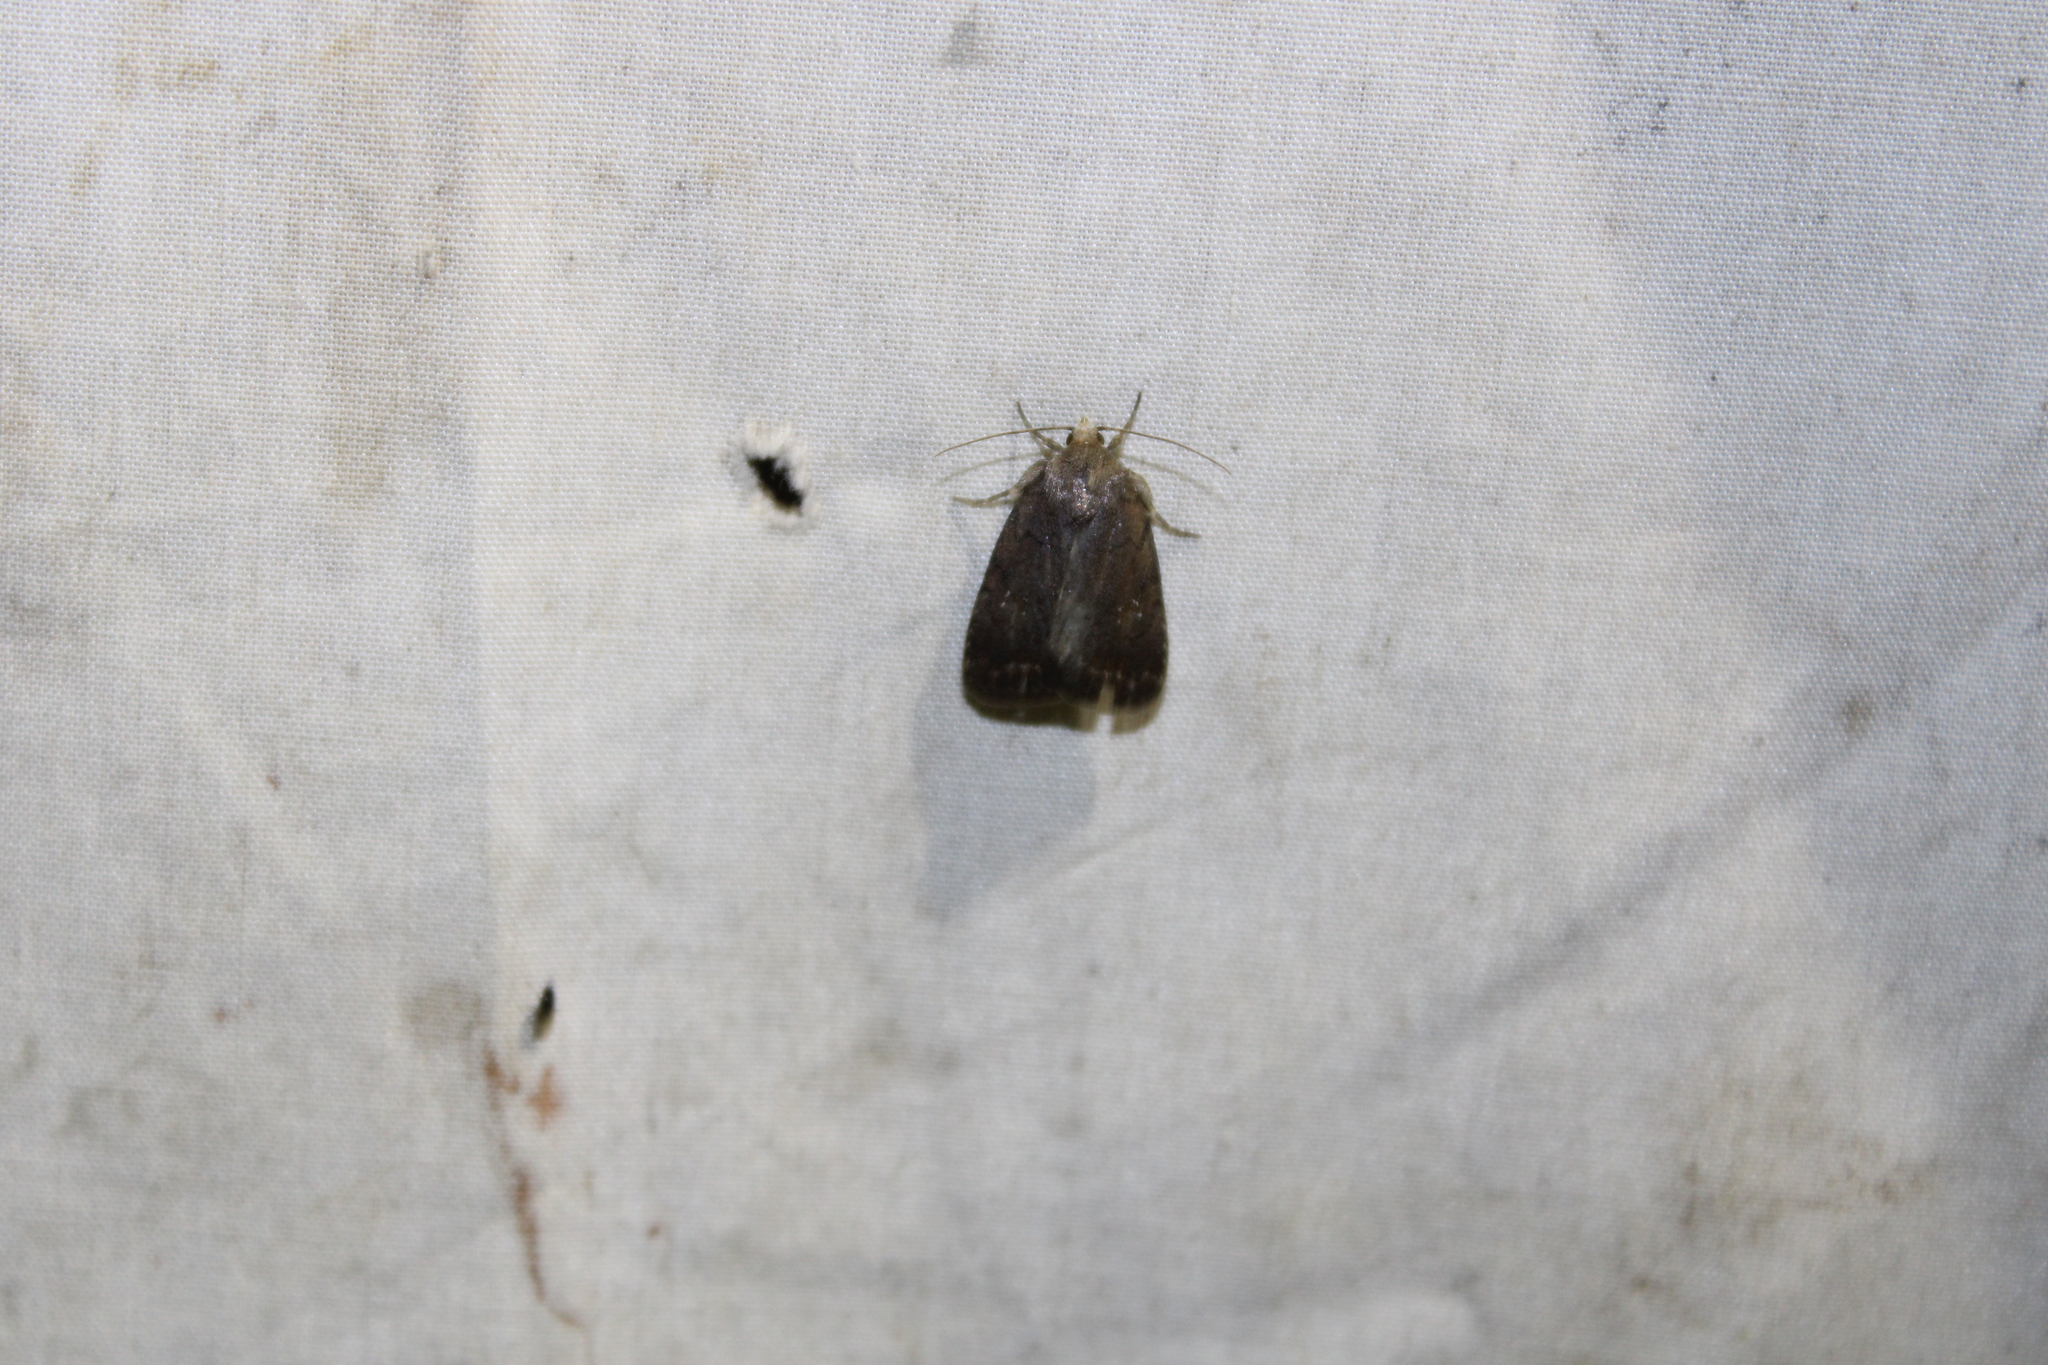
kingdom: Animalia
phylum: Arthropoda
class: Insecta
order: Lepidoptera
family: Noctuidae
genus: Homorthodes
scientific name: Homorthodes furfurata
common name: Northern scurfy quaker
